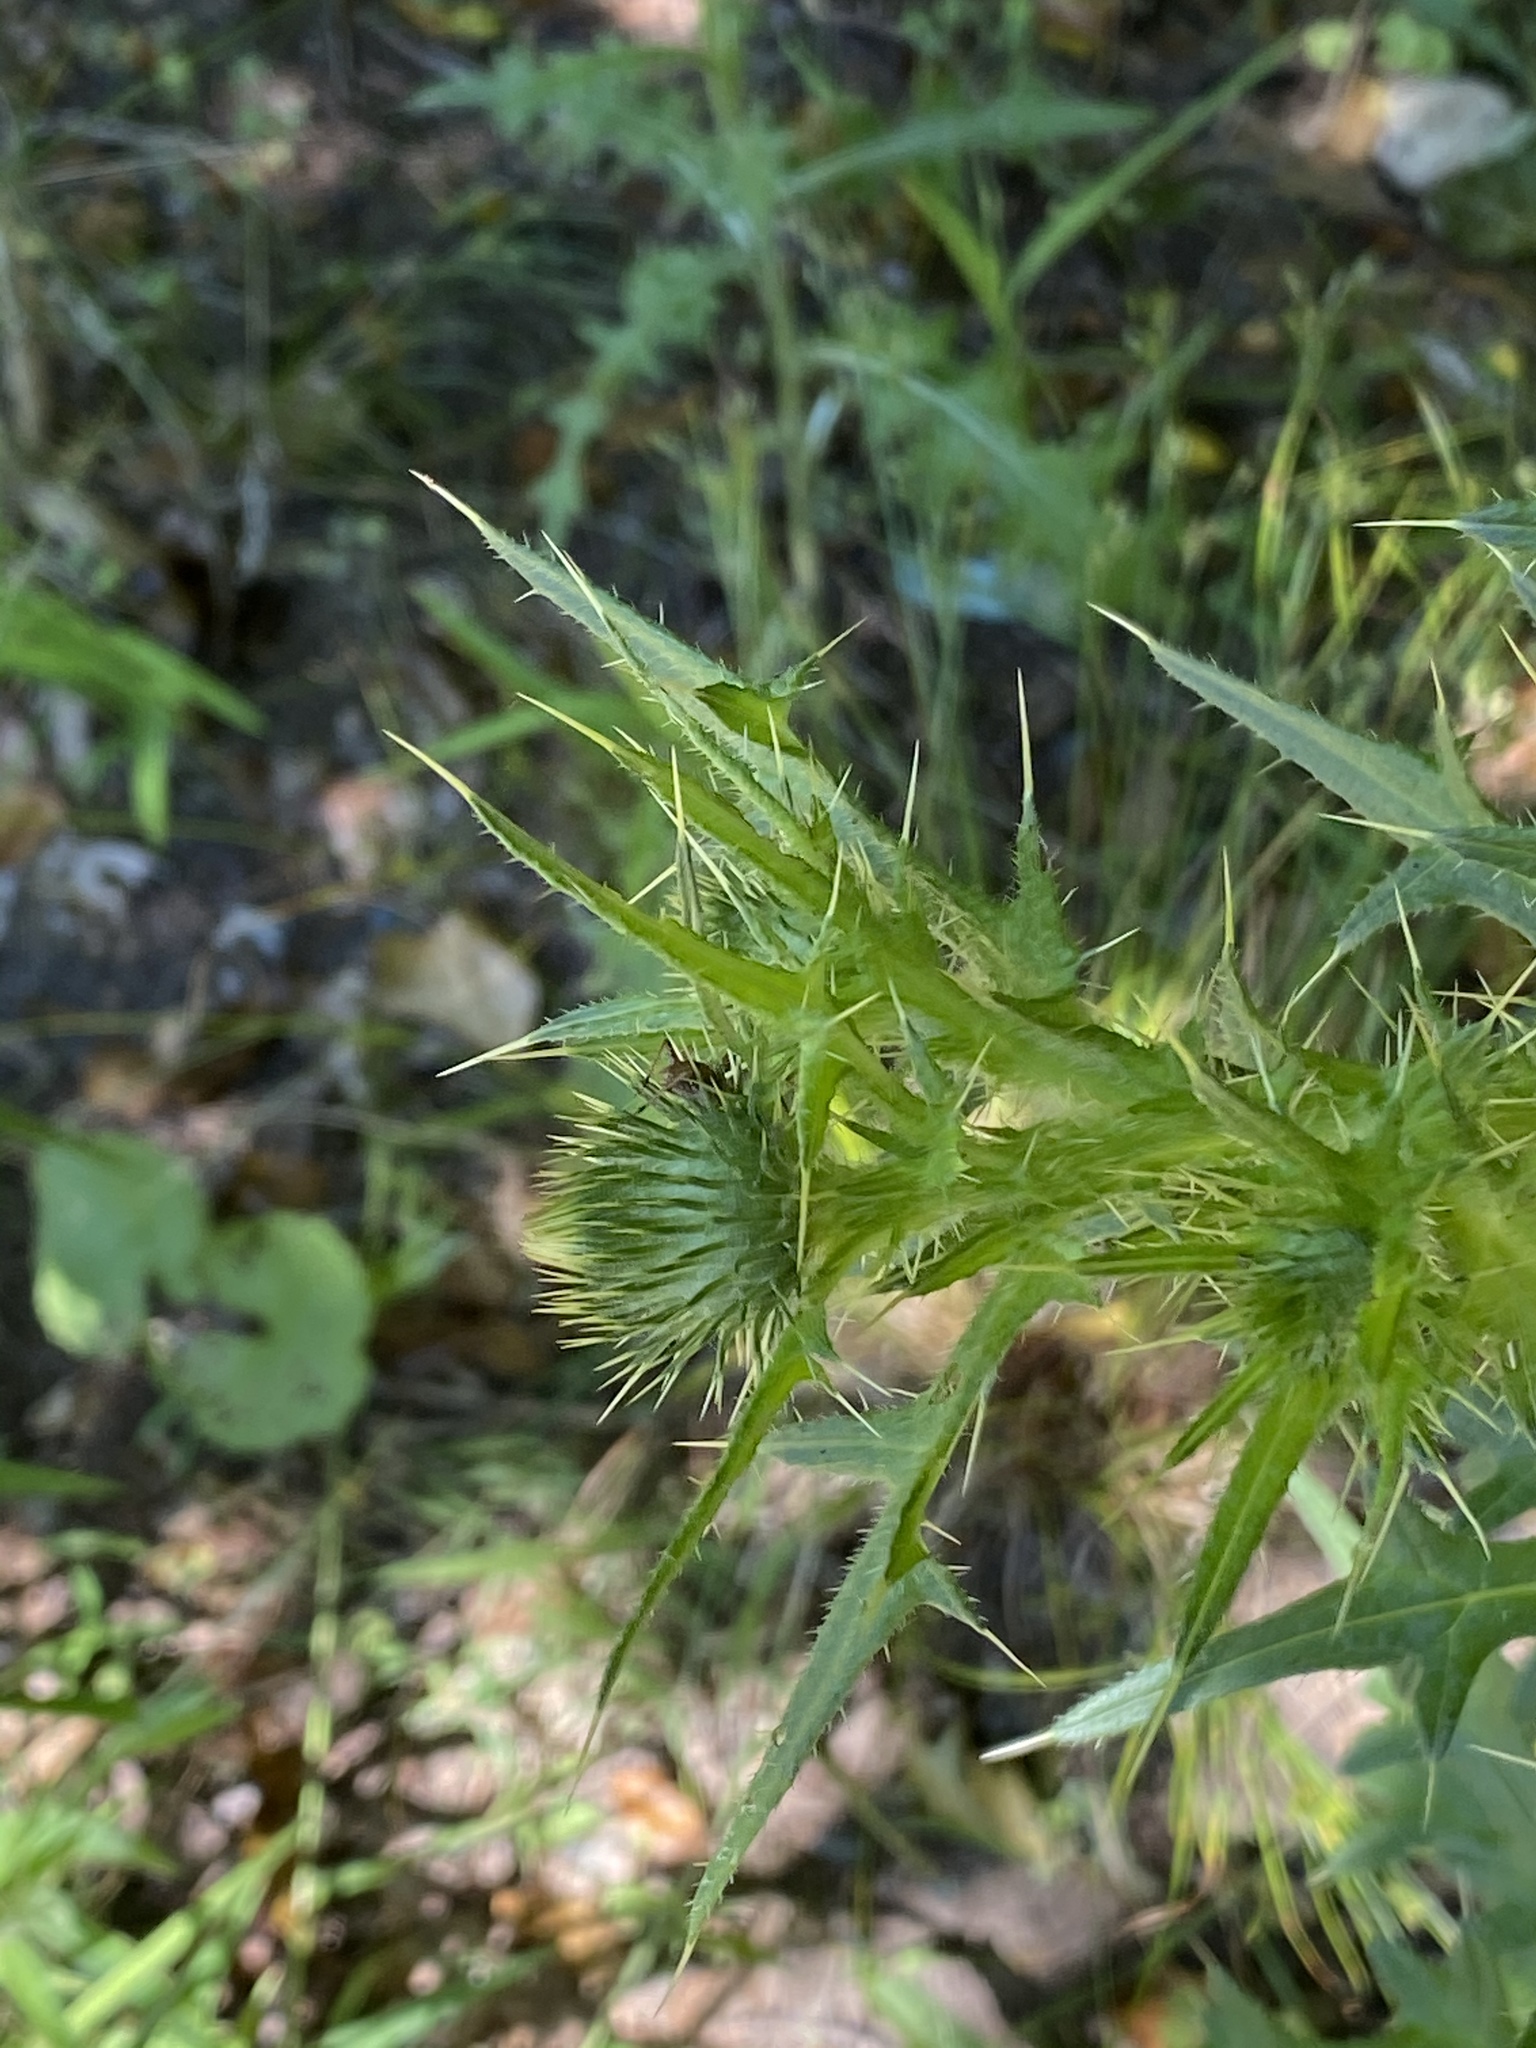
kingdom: Plantae
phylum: Tracheophyta
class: Magnoliopsida
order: Asterales
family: Asteraceae
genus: Cirsium
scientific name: Cirsium vulgare
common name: Bull thistle
